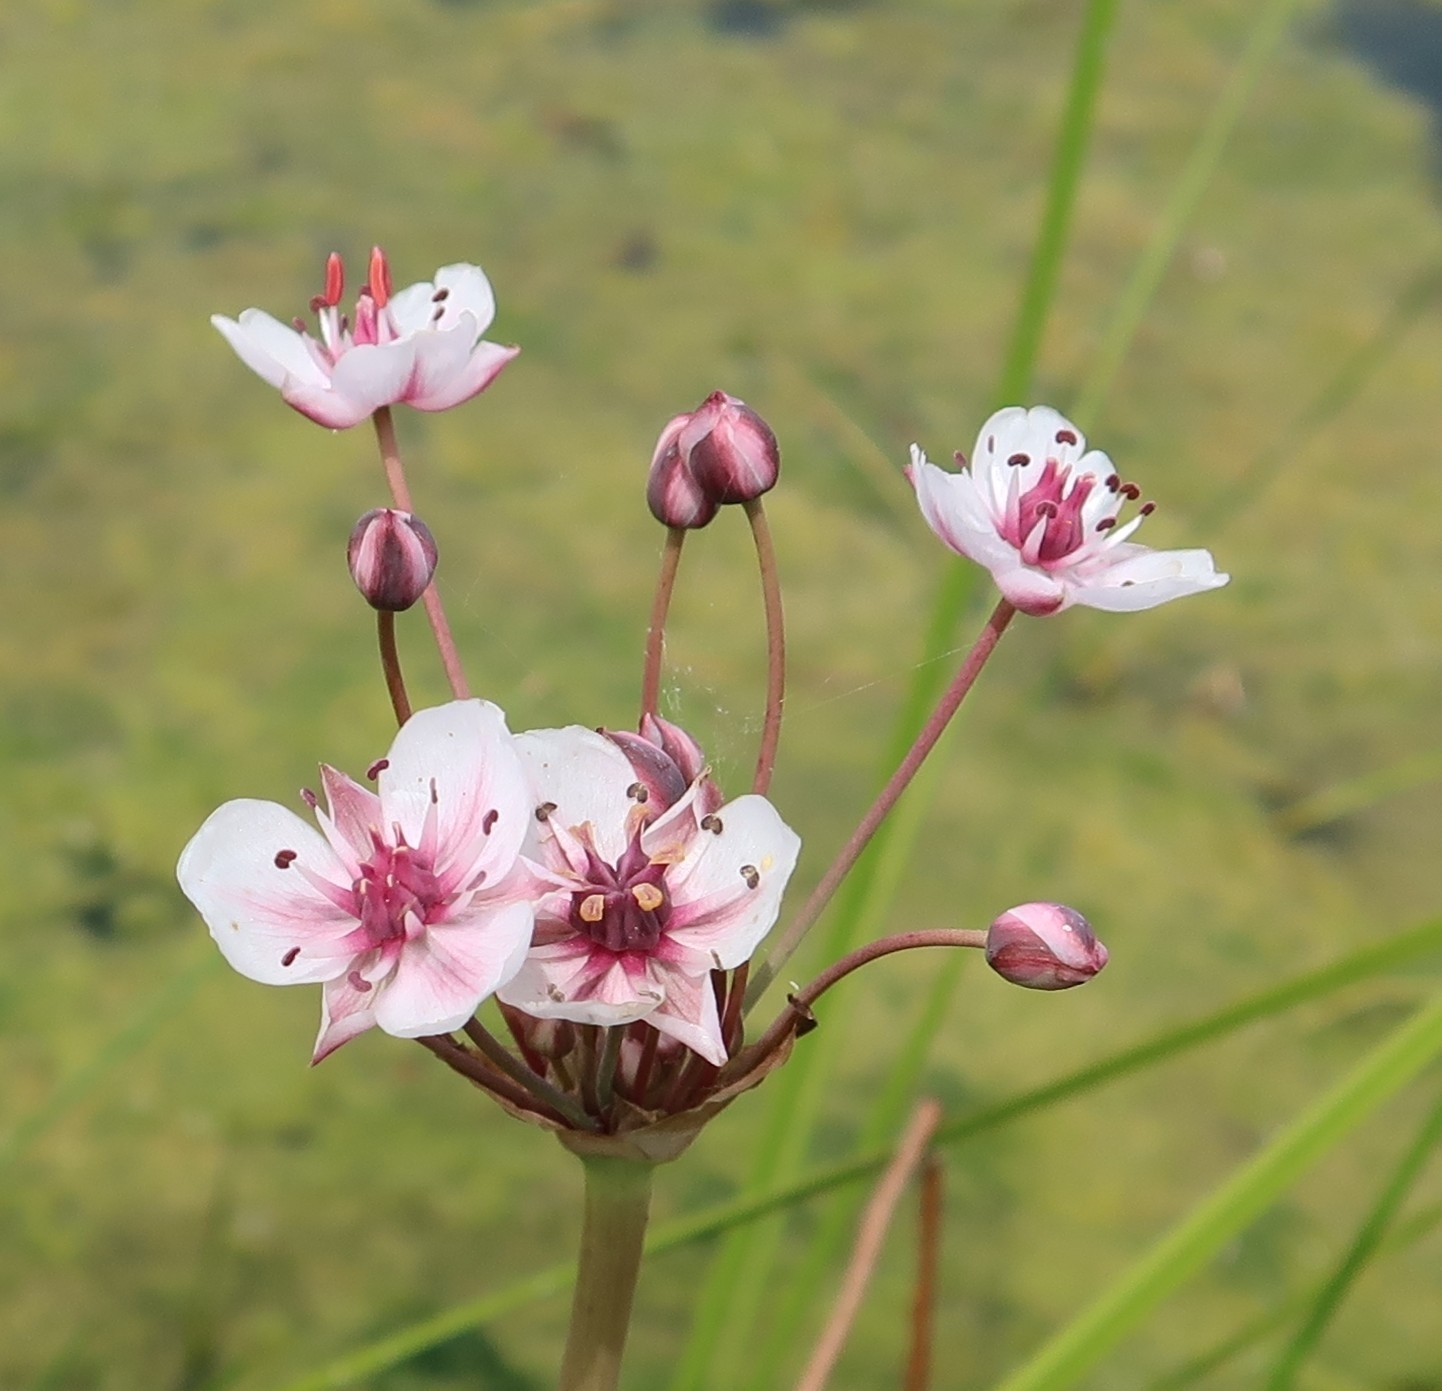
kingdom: Plantae
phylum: Tracheophyta
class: Liliopsida
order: Alismatales
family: Butomaceae
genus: Butomus
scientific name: Butomus umbellatus
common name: Flowering-rush
